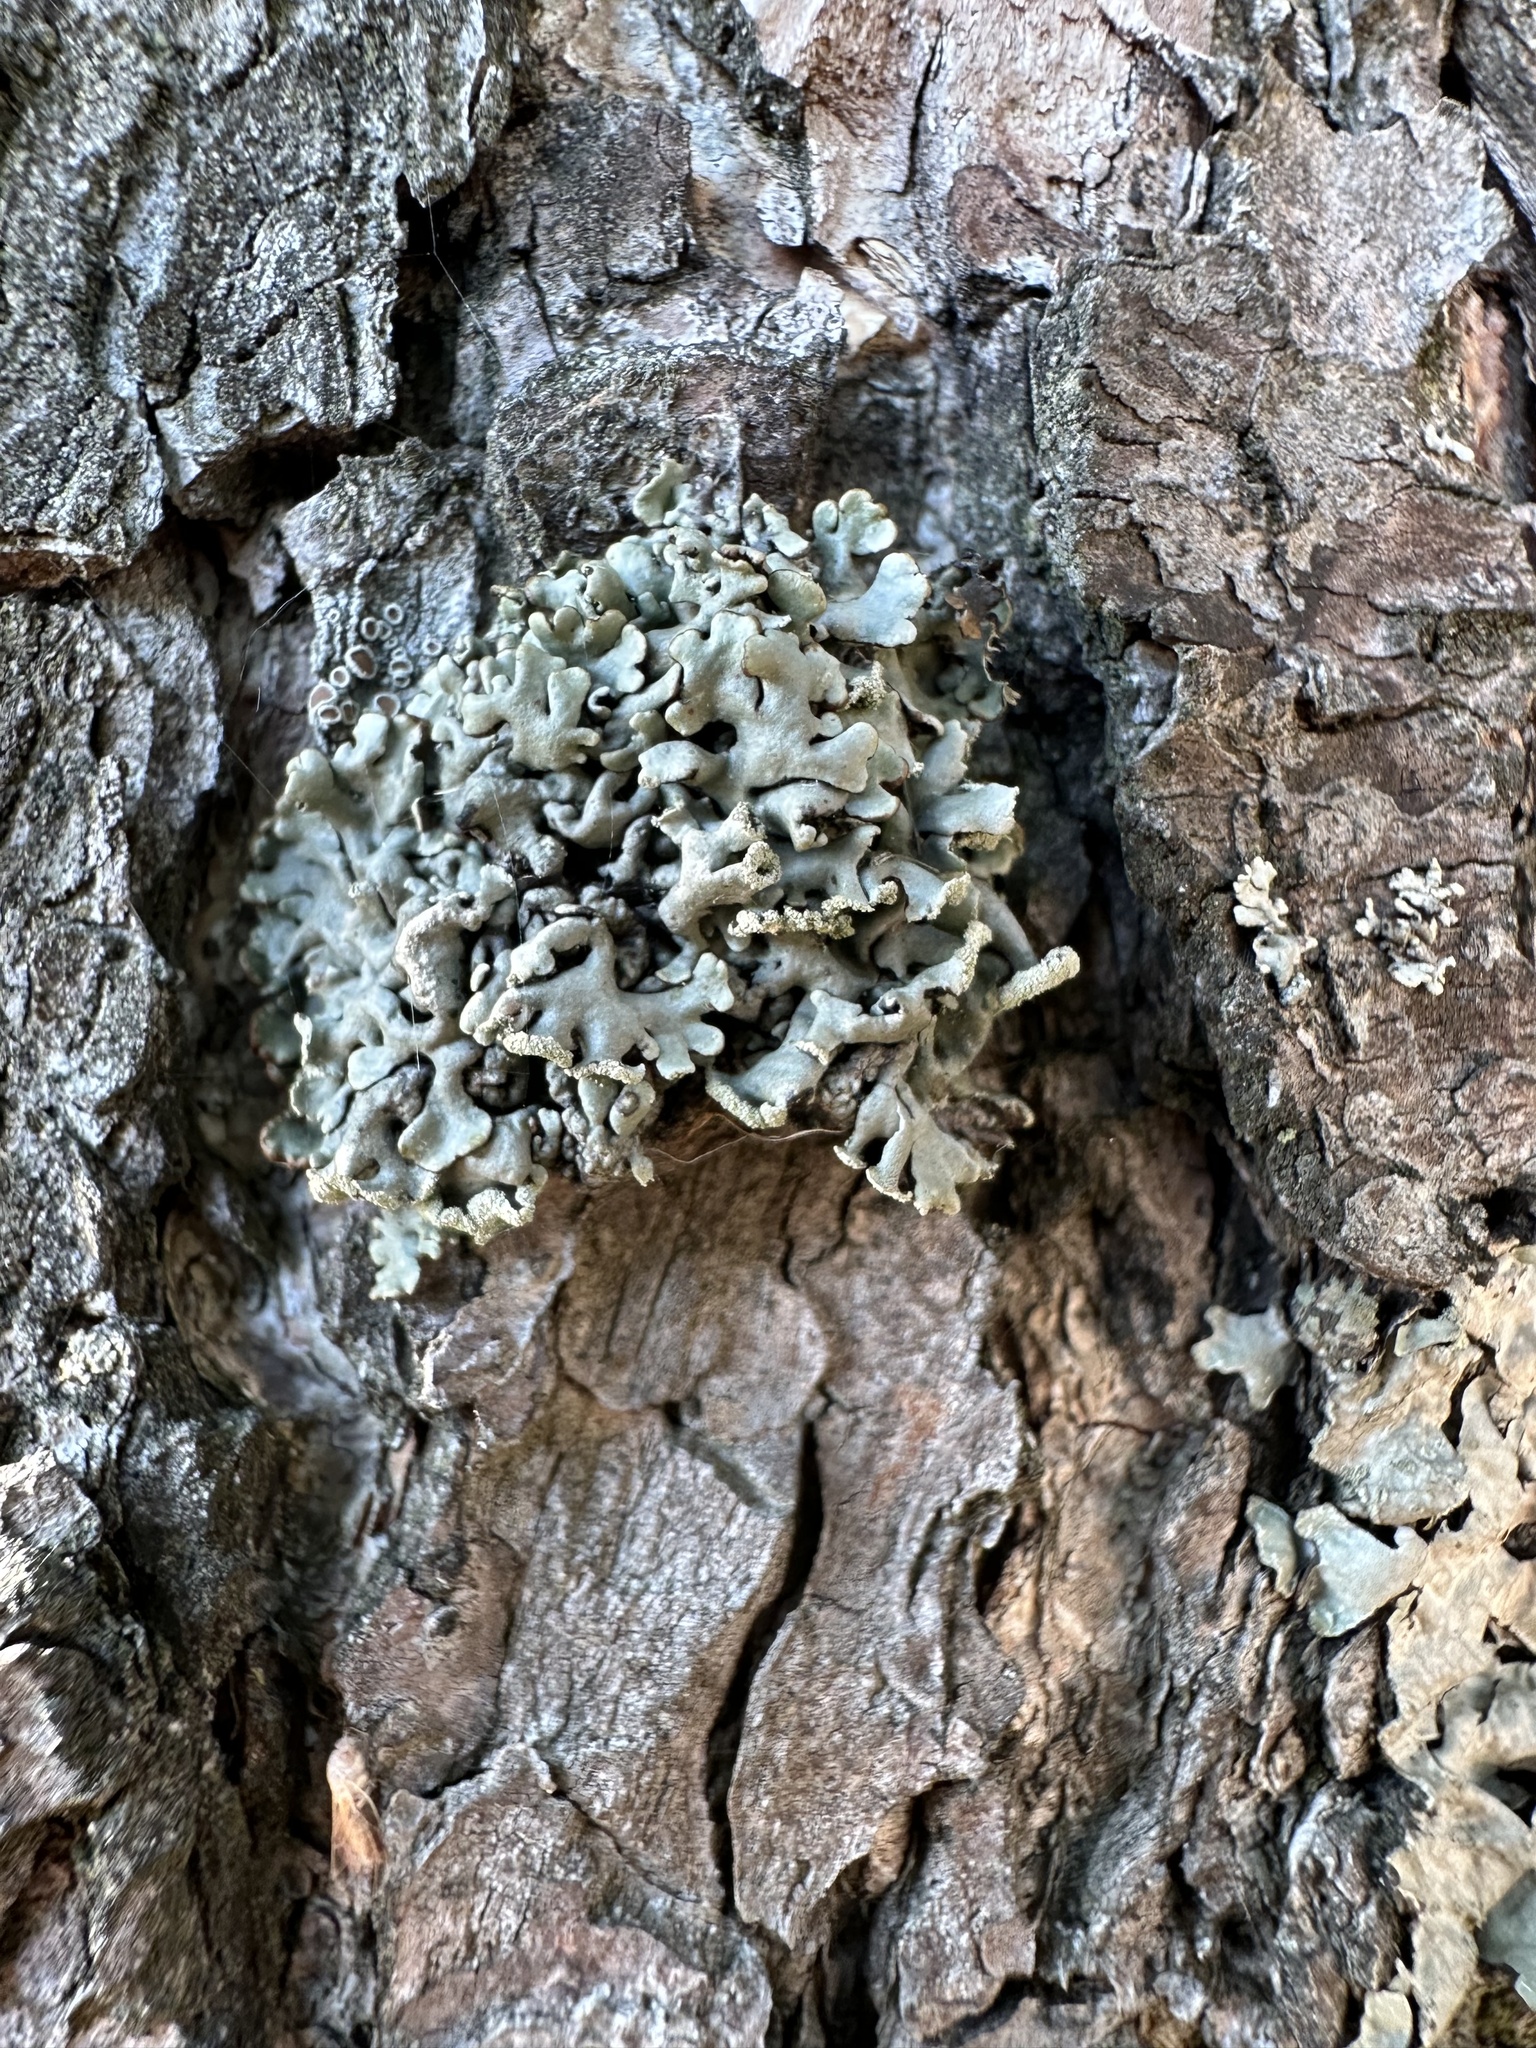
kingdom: Fungi
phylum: Ascomycota
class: Lecanoromycetes
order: Lecanorales
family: Parmeliaceae
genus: Hypogymnia
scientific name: Hypogymnia physodes
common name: Dark crottle
